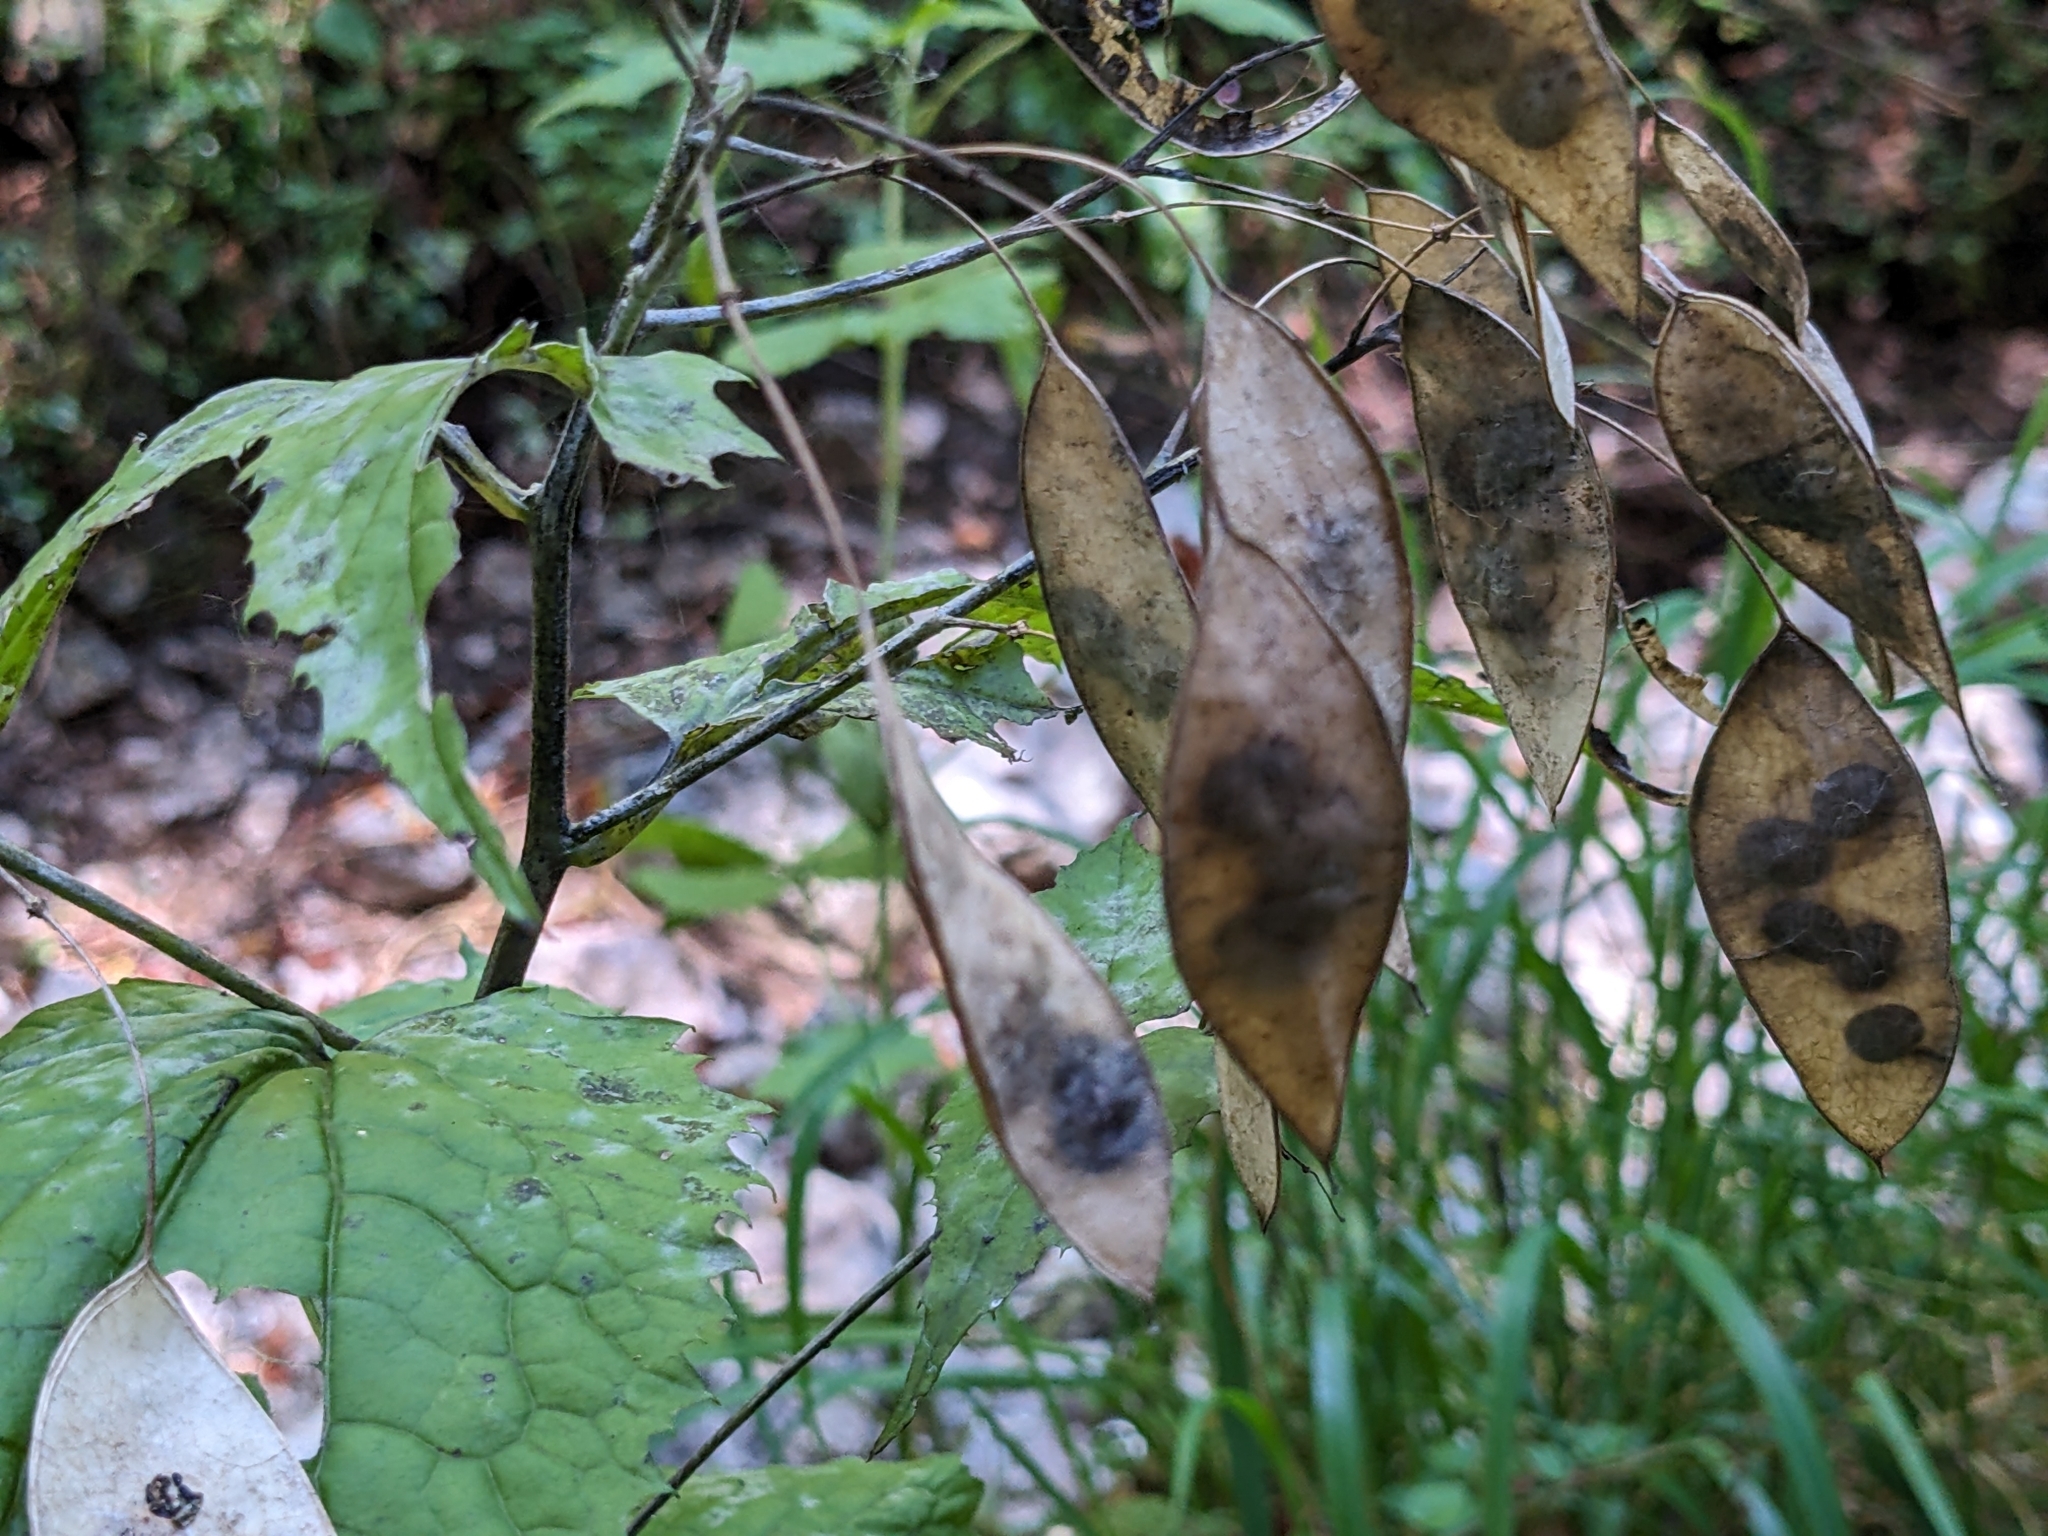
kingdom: Plantae
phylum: Tracheophyta
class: Magnoliopsida
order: Brassicales
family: Brassicaceae
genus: Lunaria
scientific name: Lunaria rediviva
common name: Perennial honesty
